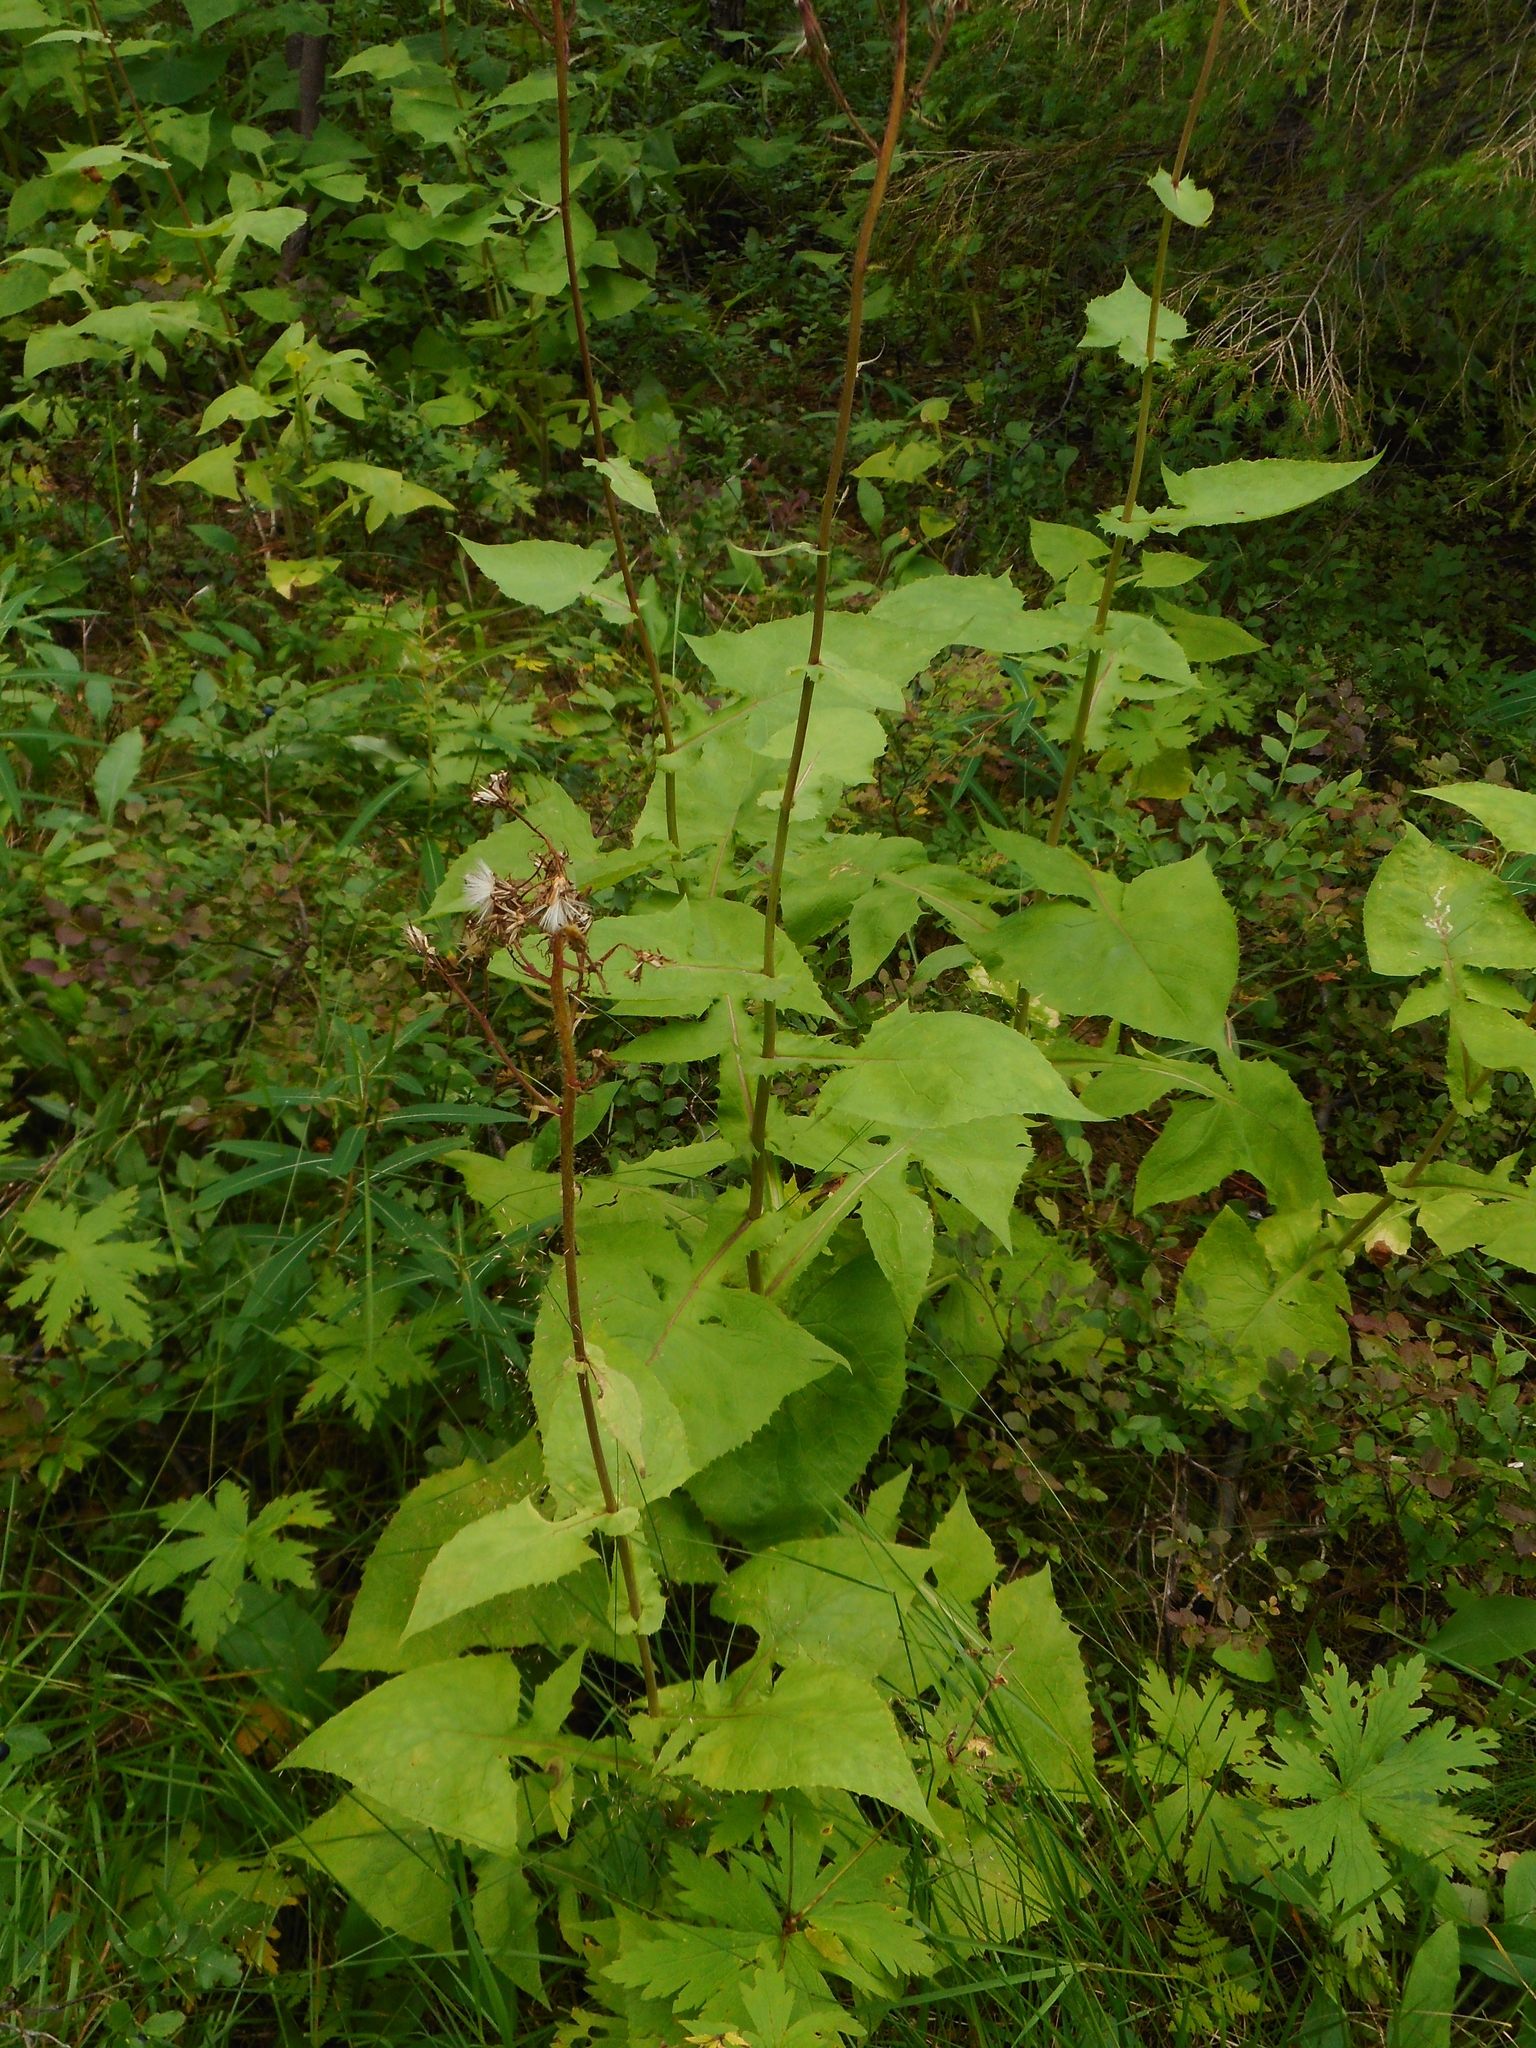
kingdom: Plantae
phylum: Tracheophyta
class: Magnoliopsida
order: Asterales
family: Asteraceae
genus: Cicerbita
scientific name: Cicerbita alpina
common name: Alpine blue-sow-thistle
